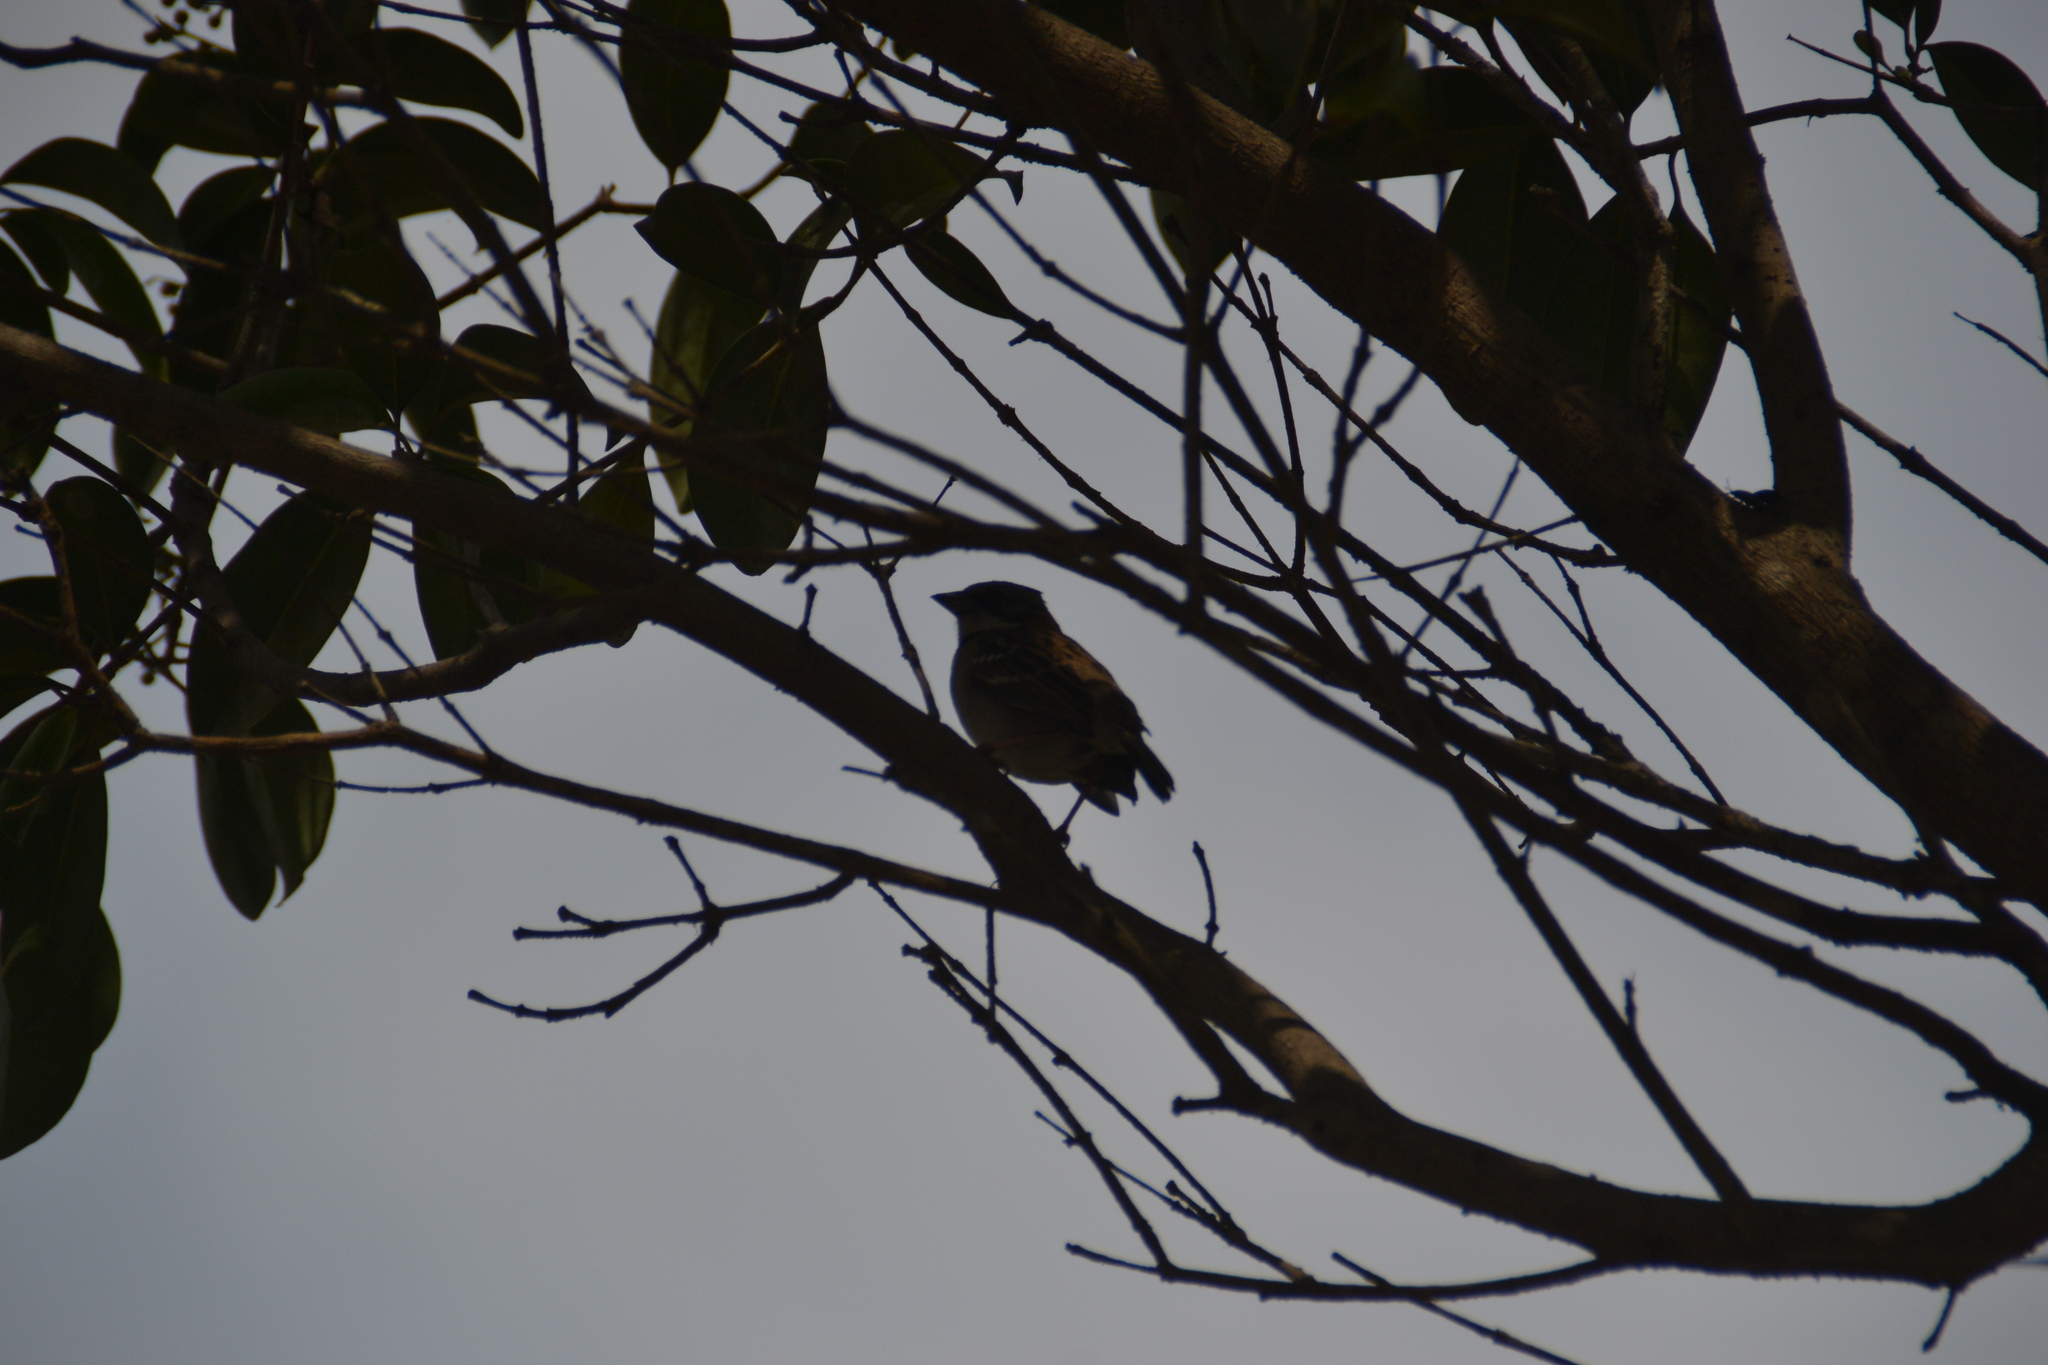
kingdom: Animalia
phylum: Chordata
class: Aves
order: Passeriformes
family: Passerellidae
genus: Zonotrichia
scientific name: Zonotrichia capensis
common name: Rufous-collared sparrow
